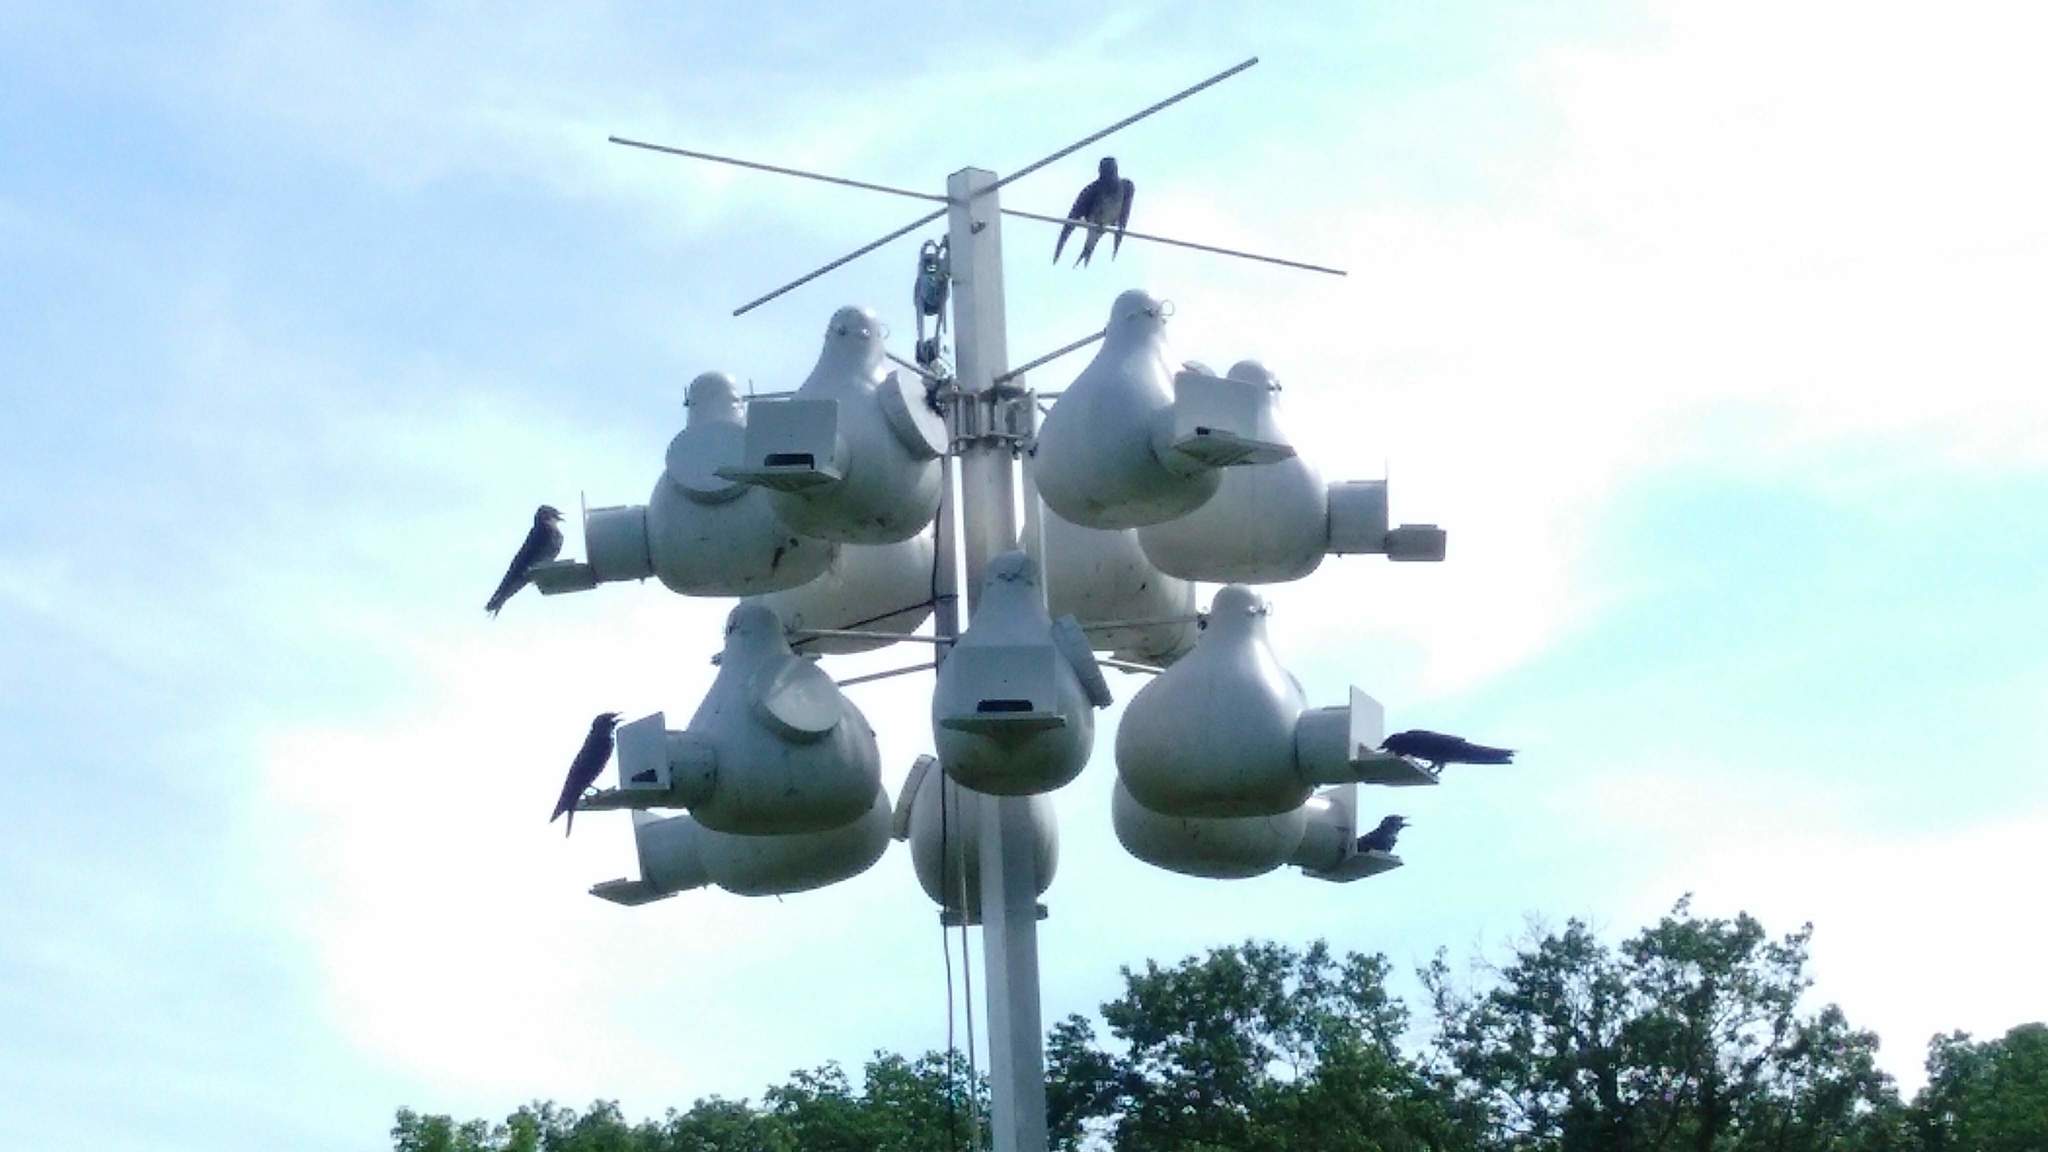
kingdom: Animalia
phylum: Chordata
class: Aves
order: Passeriformes
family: Hirundinidae
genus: Progne
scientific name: Progne subis
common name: Purple martin
